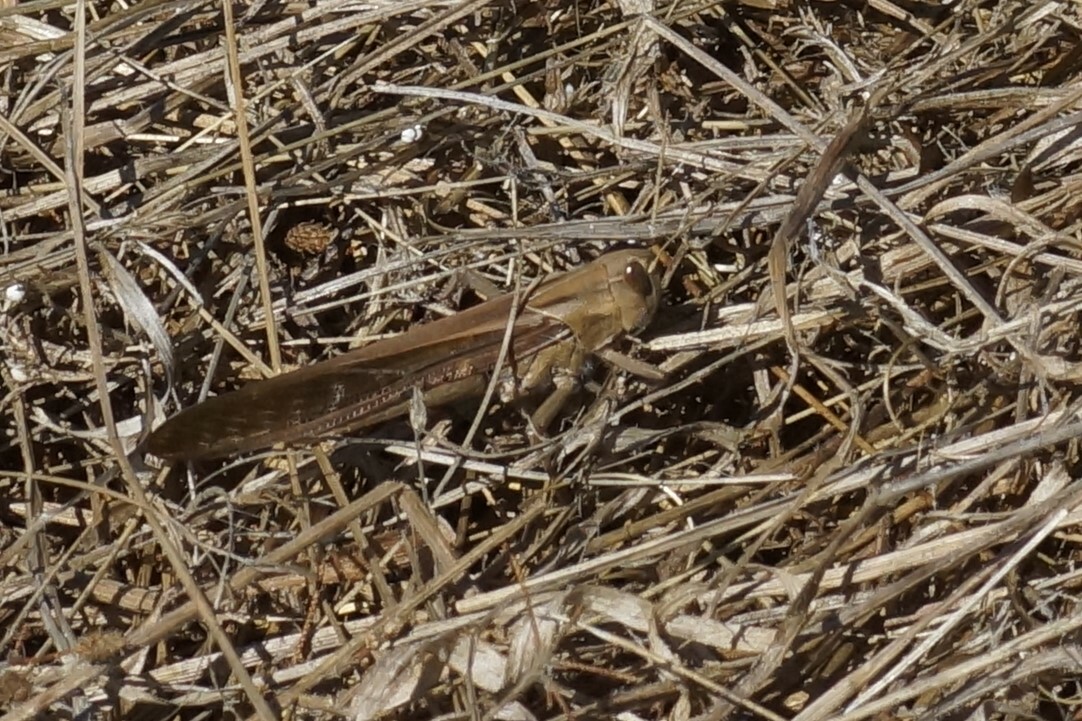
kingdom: Animalia
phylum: Arthropoda
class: Insecta
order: Orthoptera
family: Acrididae
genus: Locusta
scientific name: Locusta migratoria
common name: Migratory locust
